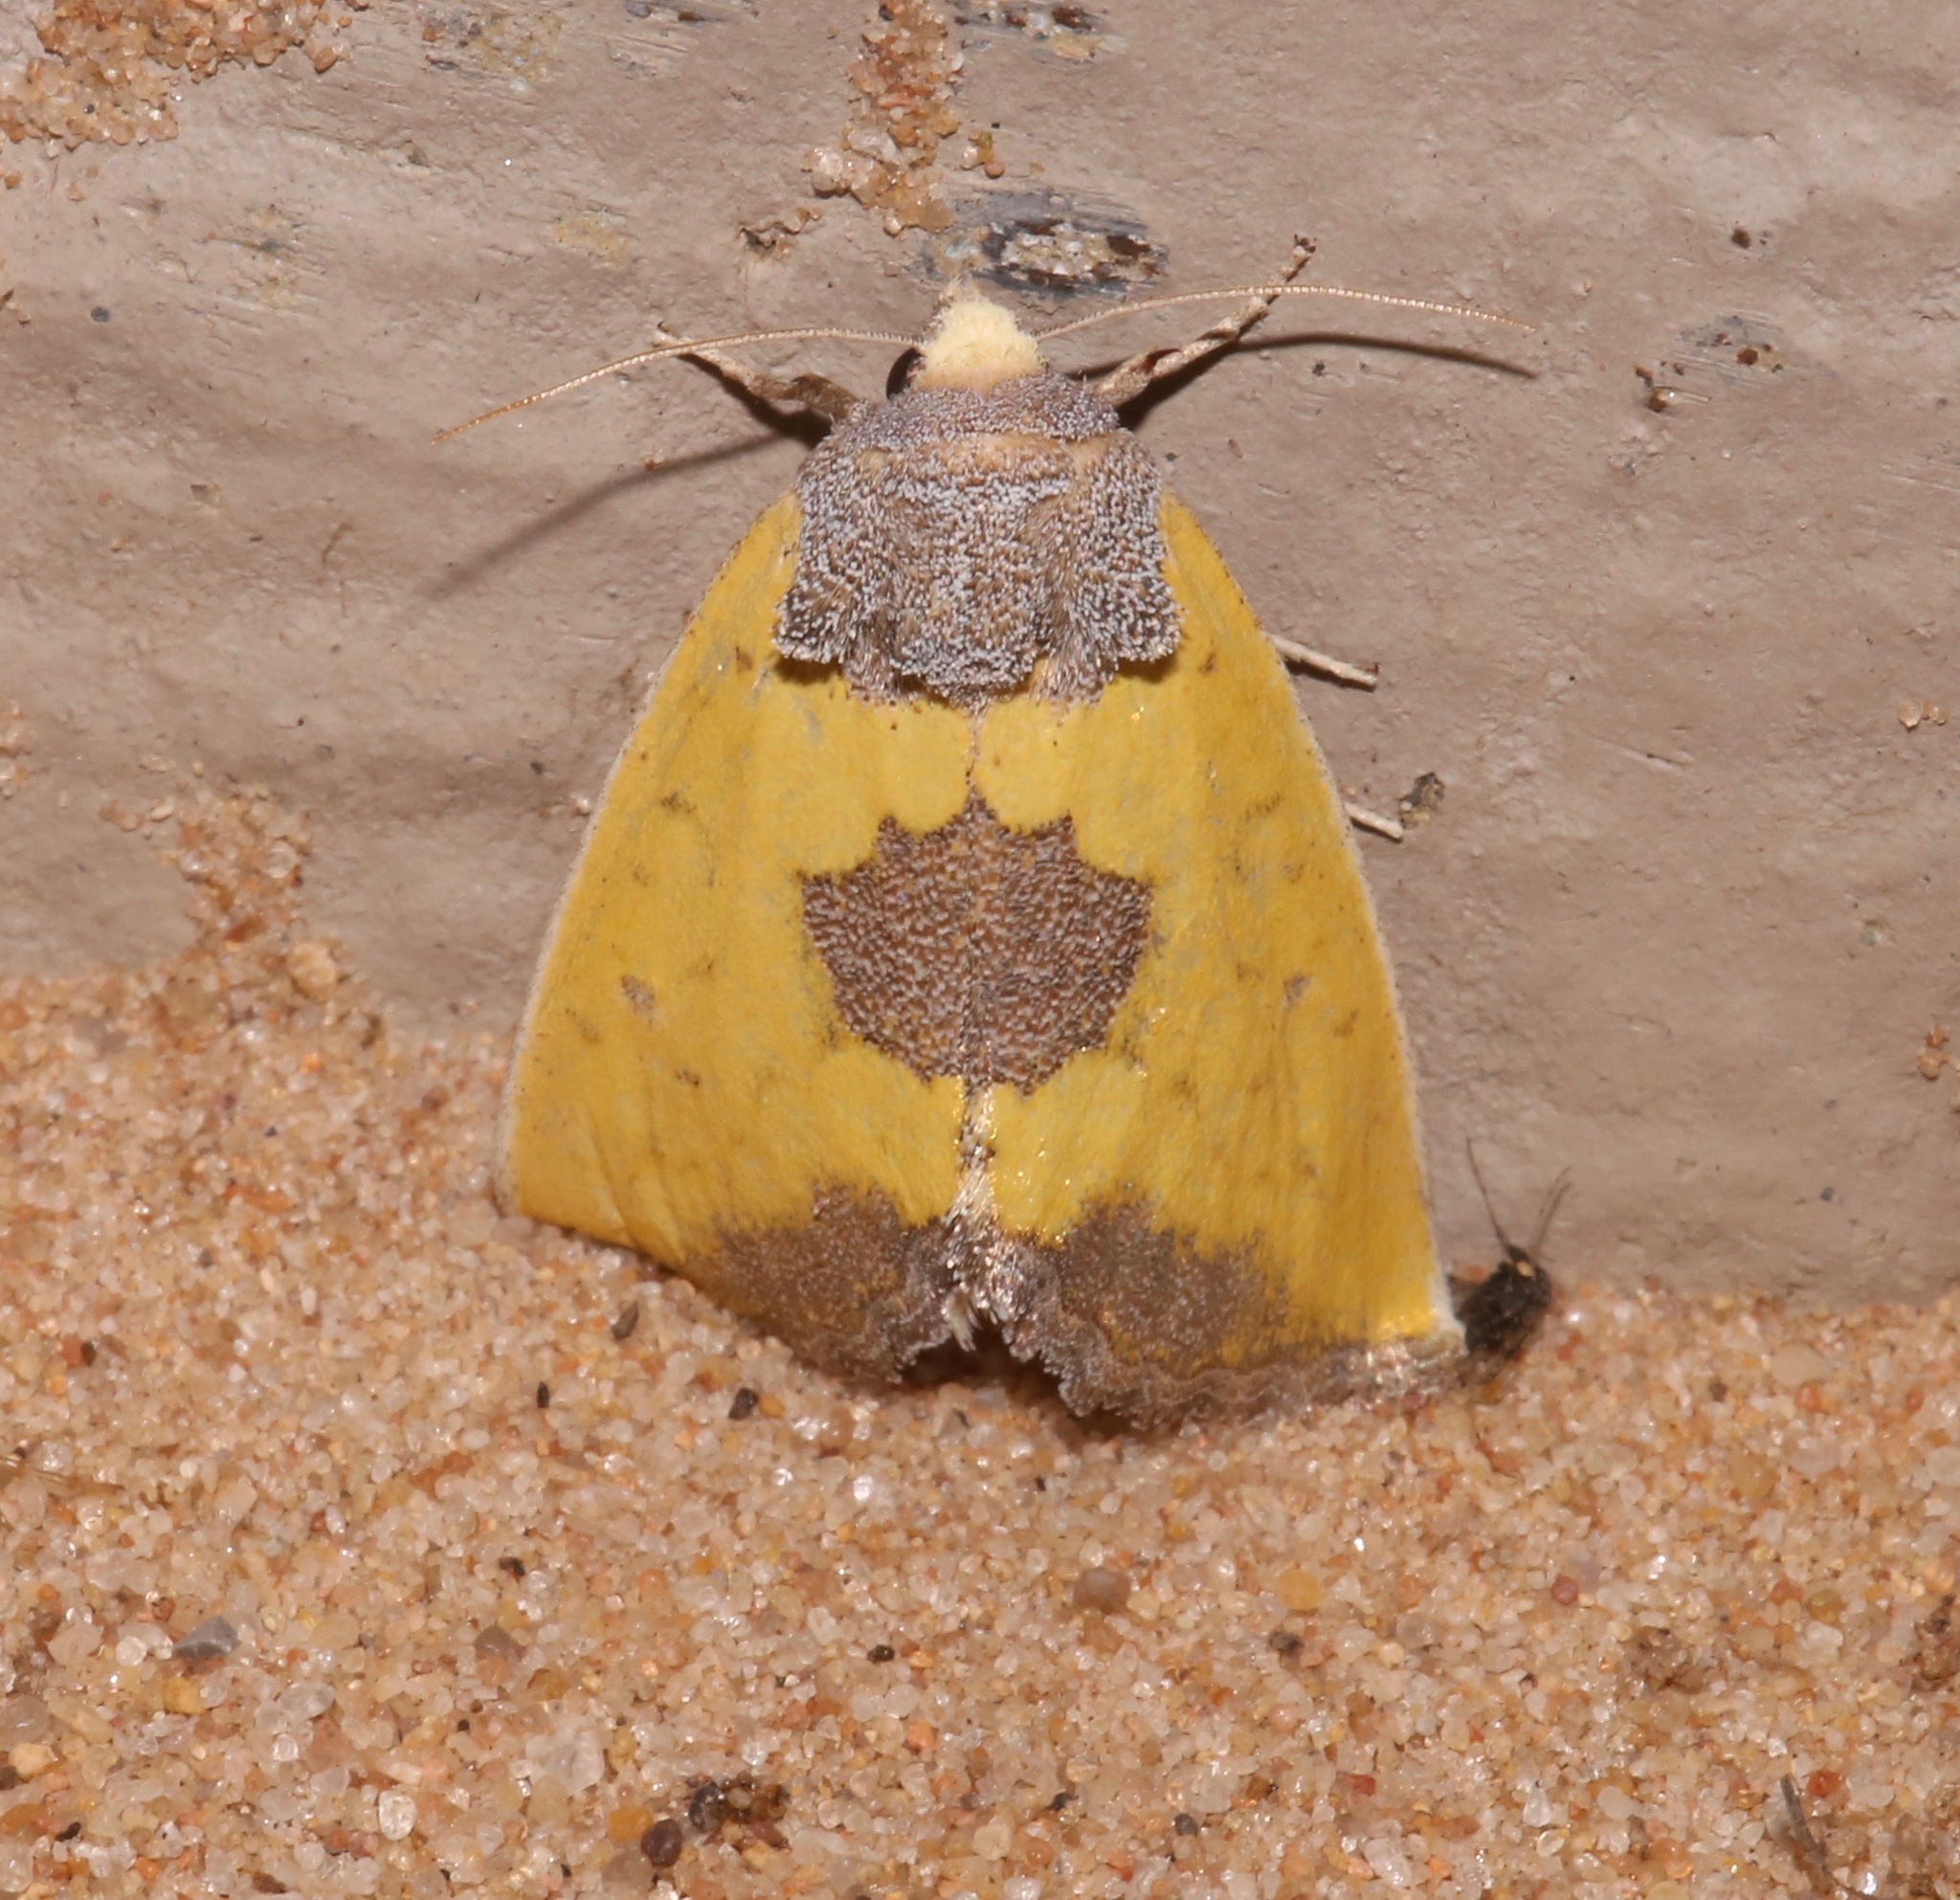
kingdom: Animalia
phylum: Arthropoda
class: Insecta
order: Lepidoptera
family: Noctuidae
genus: Stiria
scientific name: Stiria rugifrons
